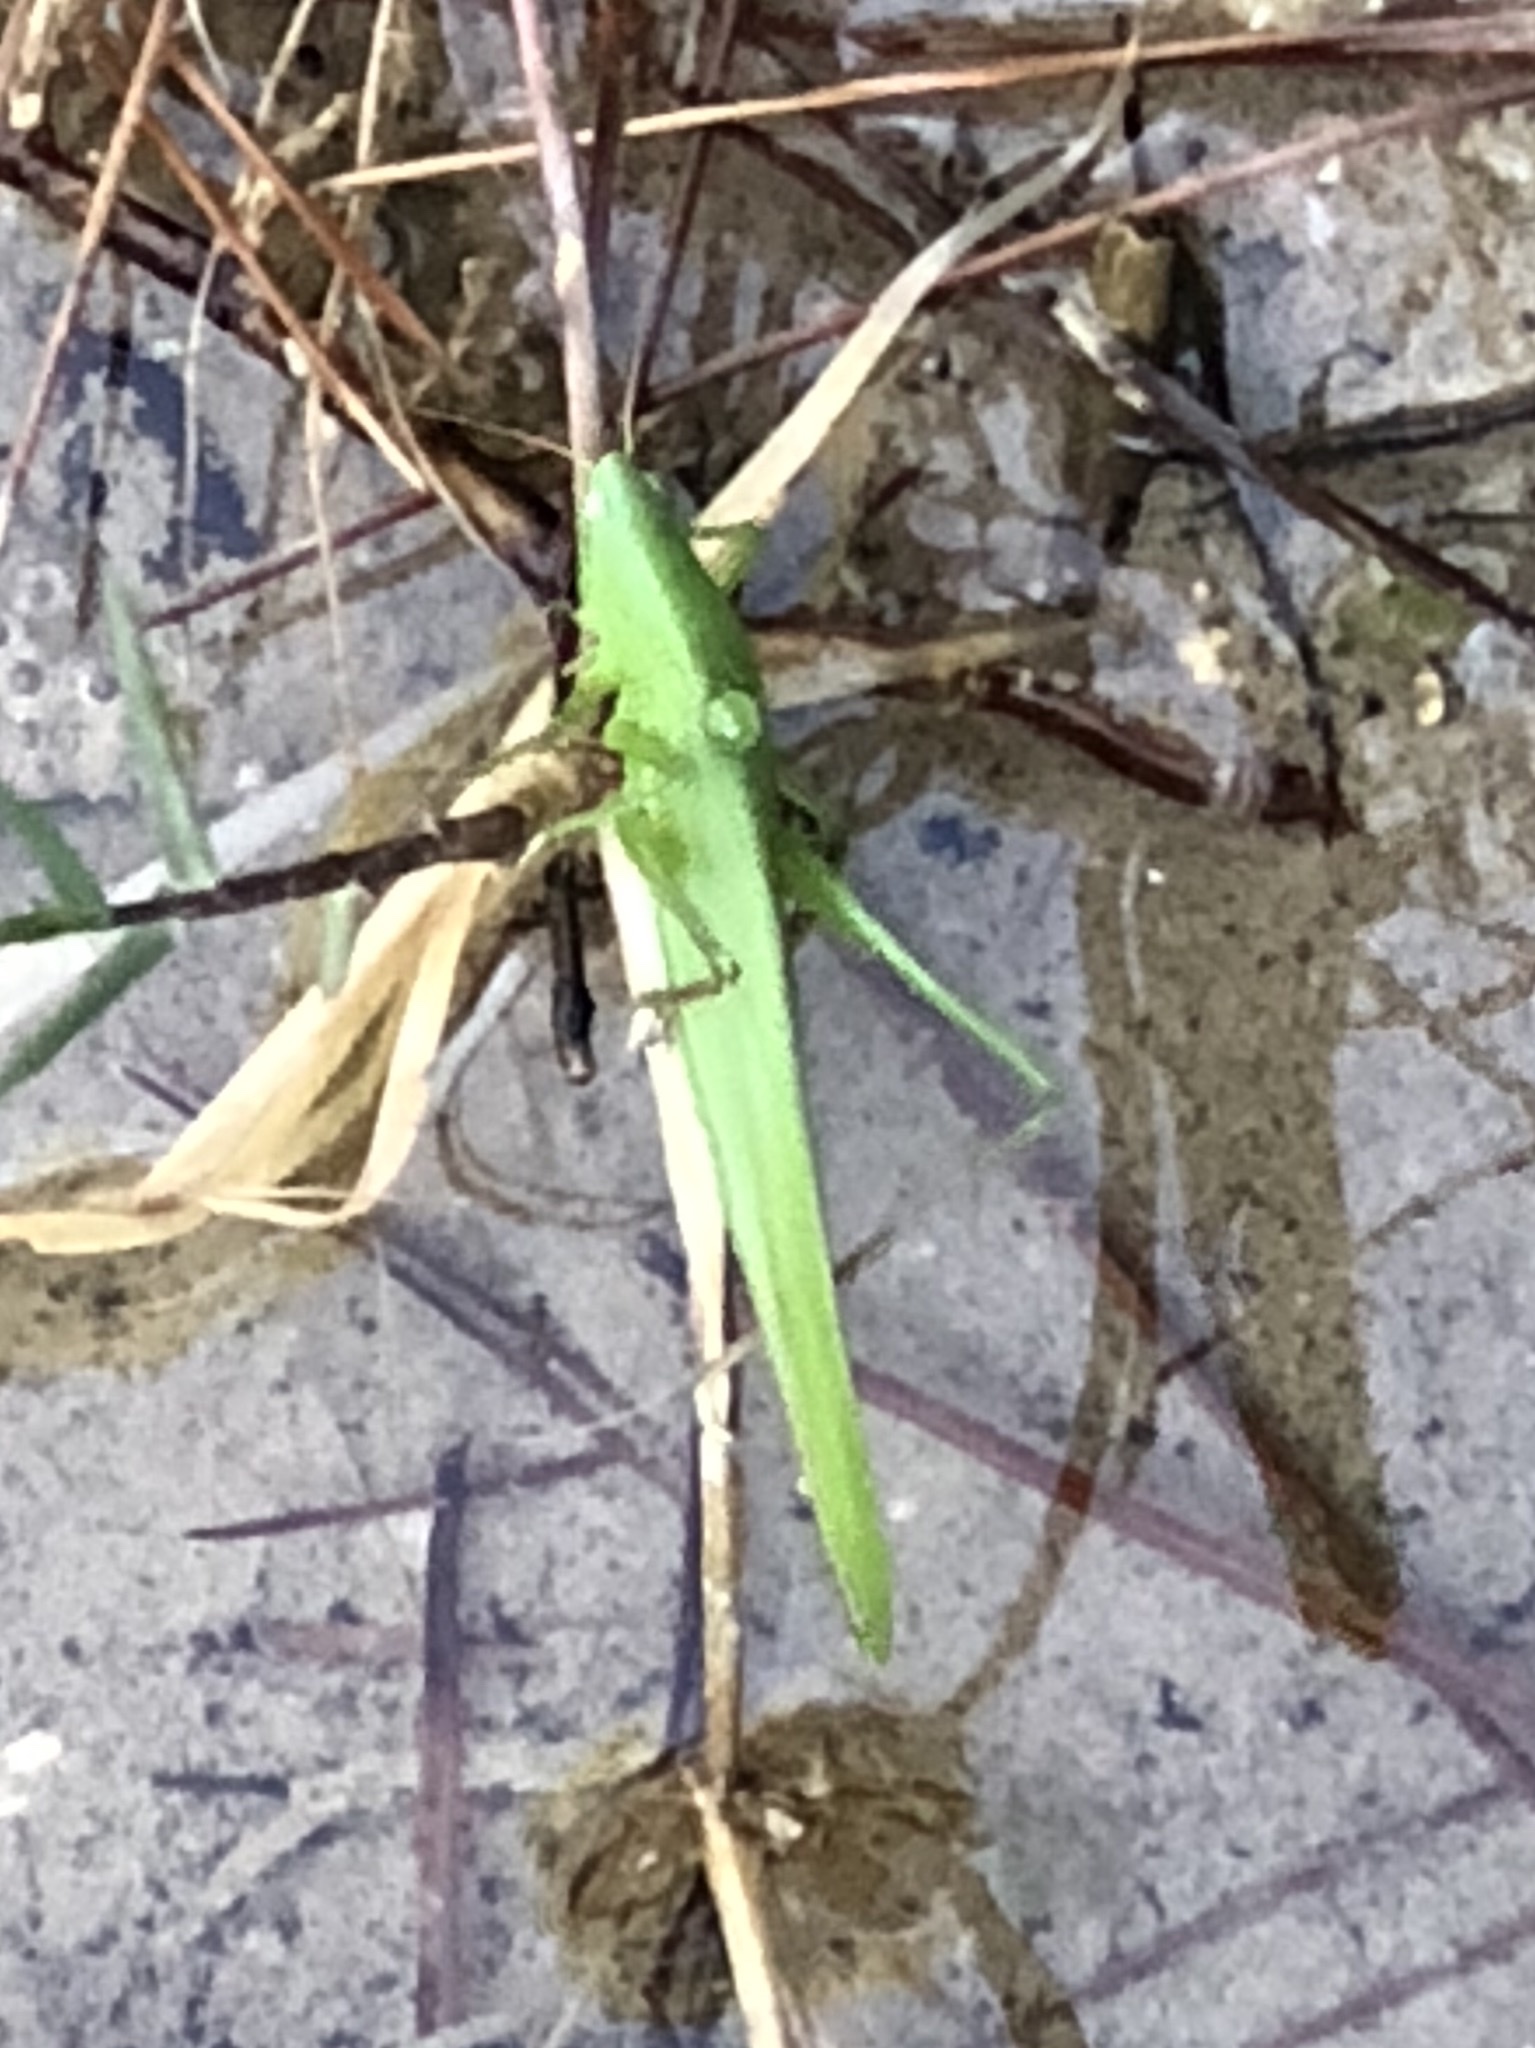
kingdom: Animalia
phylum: Arthropoda
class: Insecta
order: Orthoptera
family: Tettigoniidae
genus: Ruspolia
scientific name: Ruspolia nitidula
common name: Large conehead
